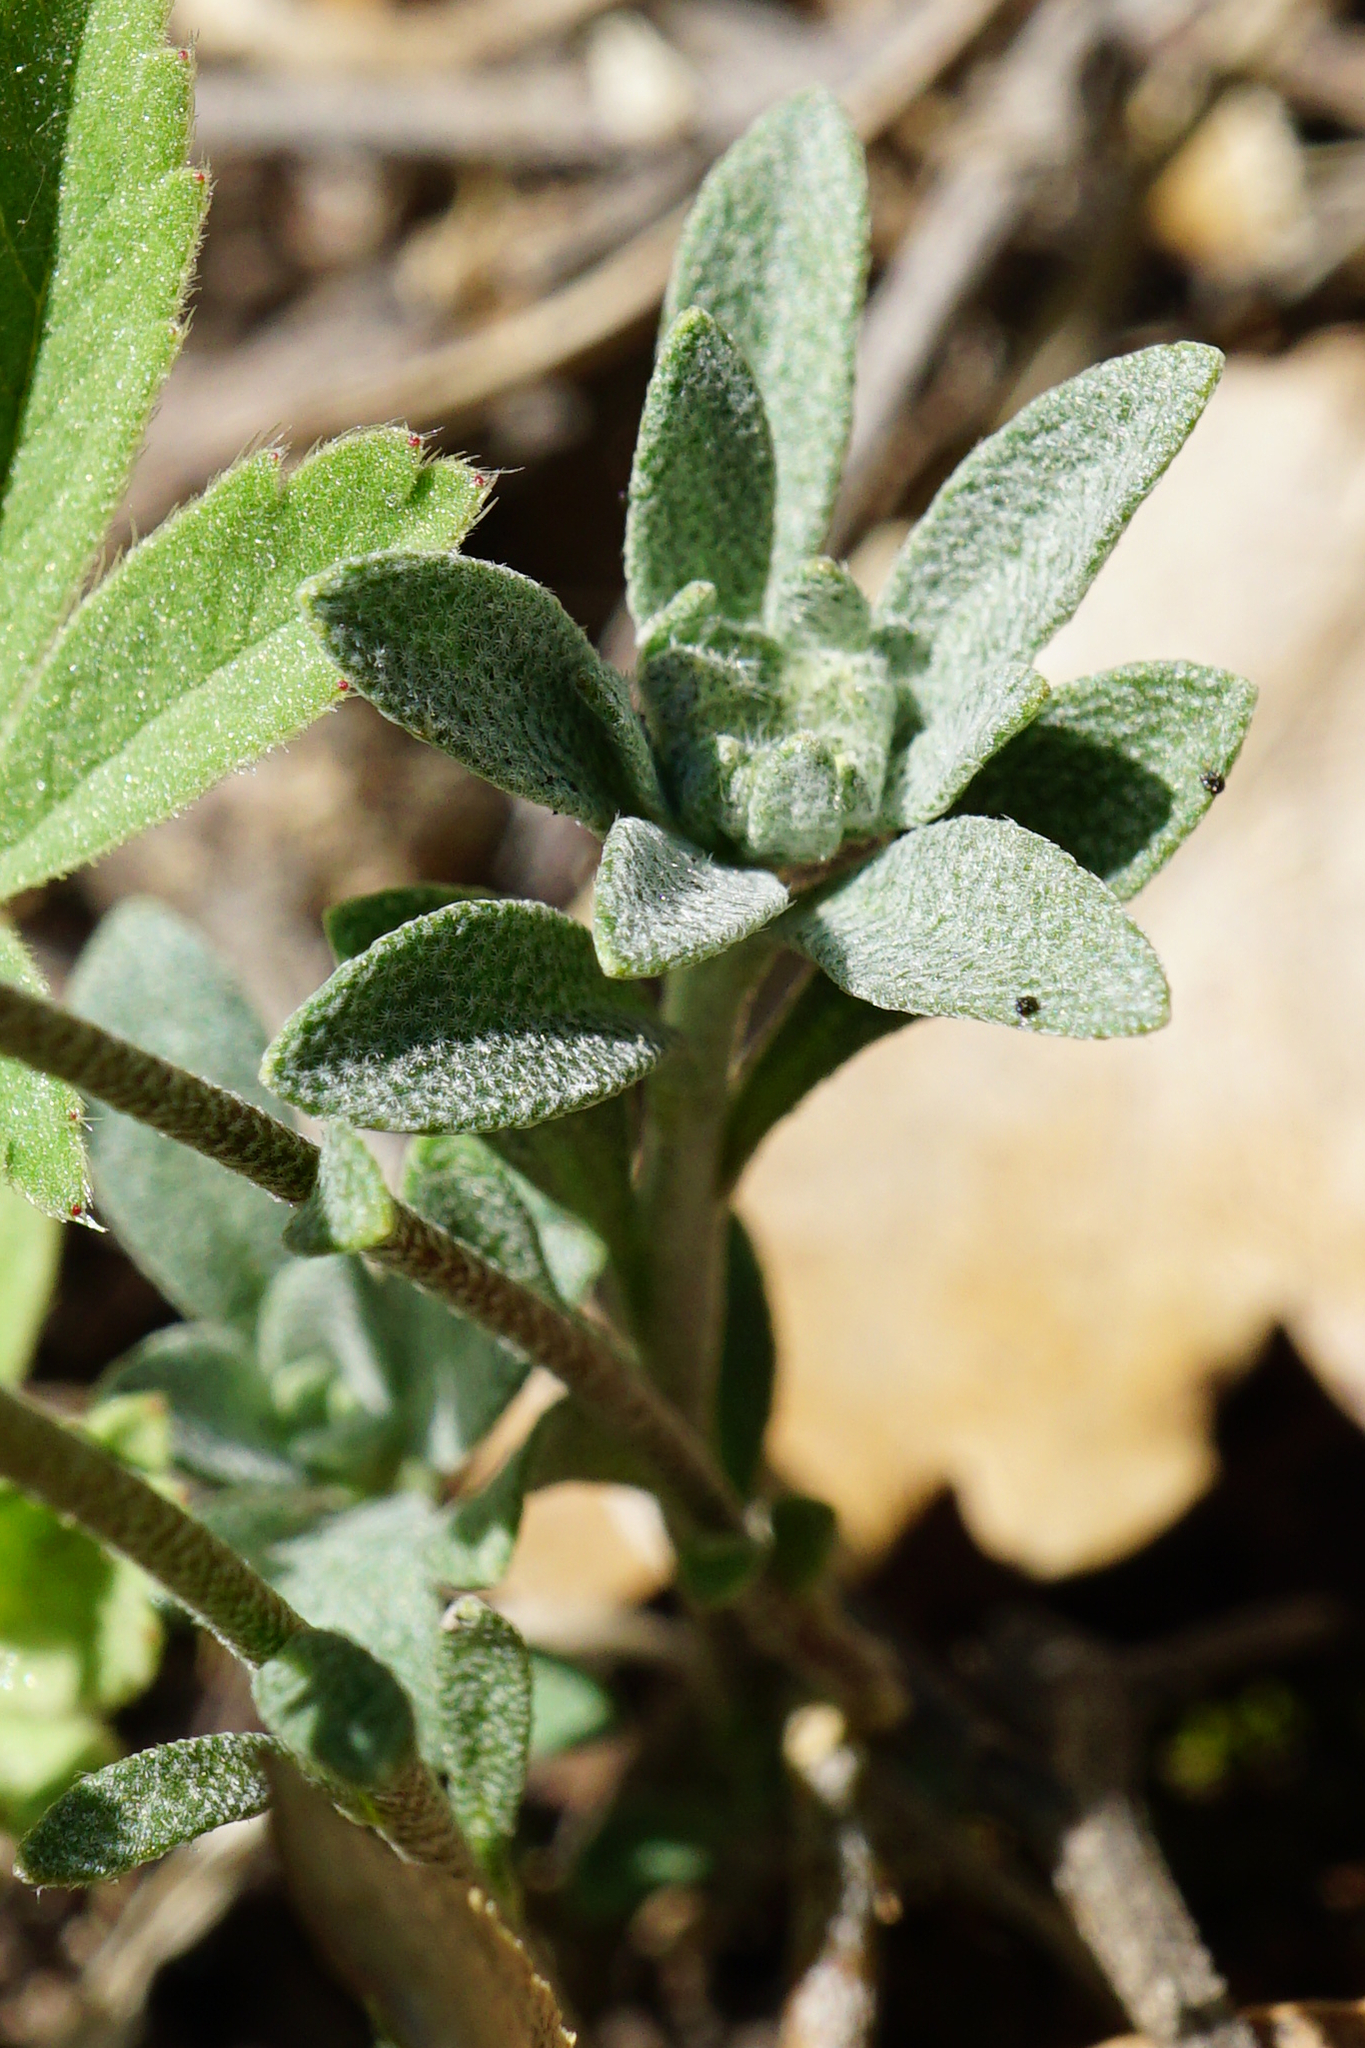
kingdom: Plantae
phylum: Tracheophyta
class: Magnoliopsida
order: Brassicales
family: Brassicaceae
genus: Alyssum
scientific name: Alyssum gmelinii
